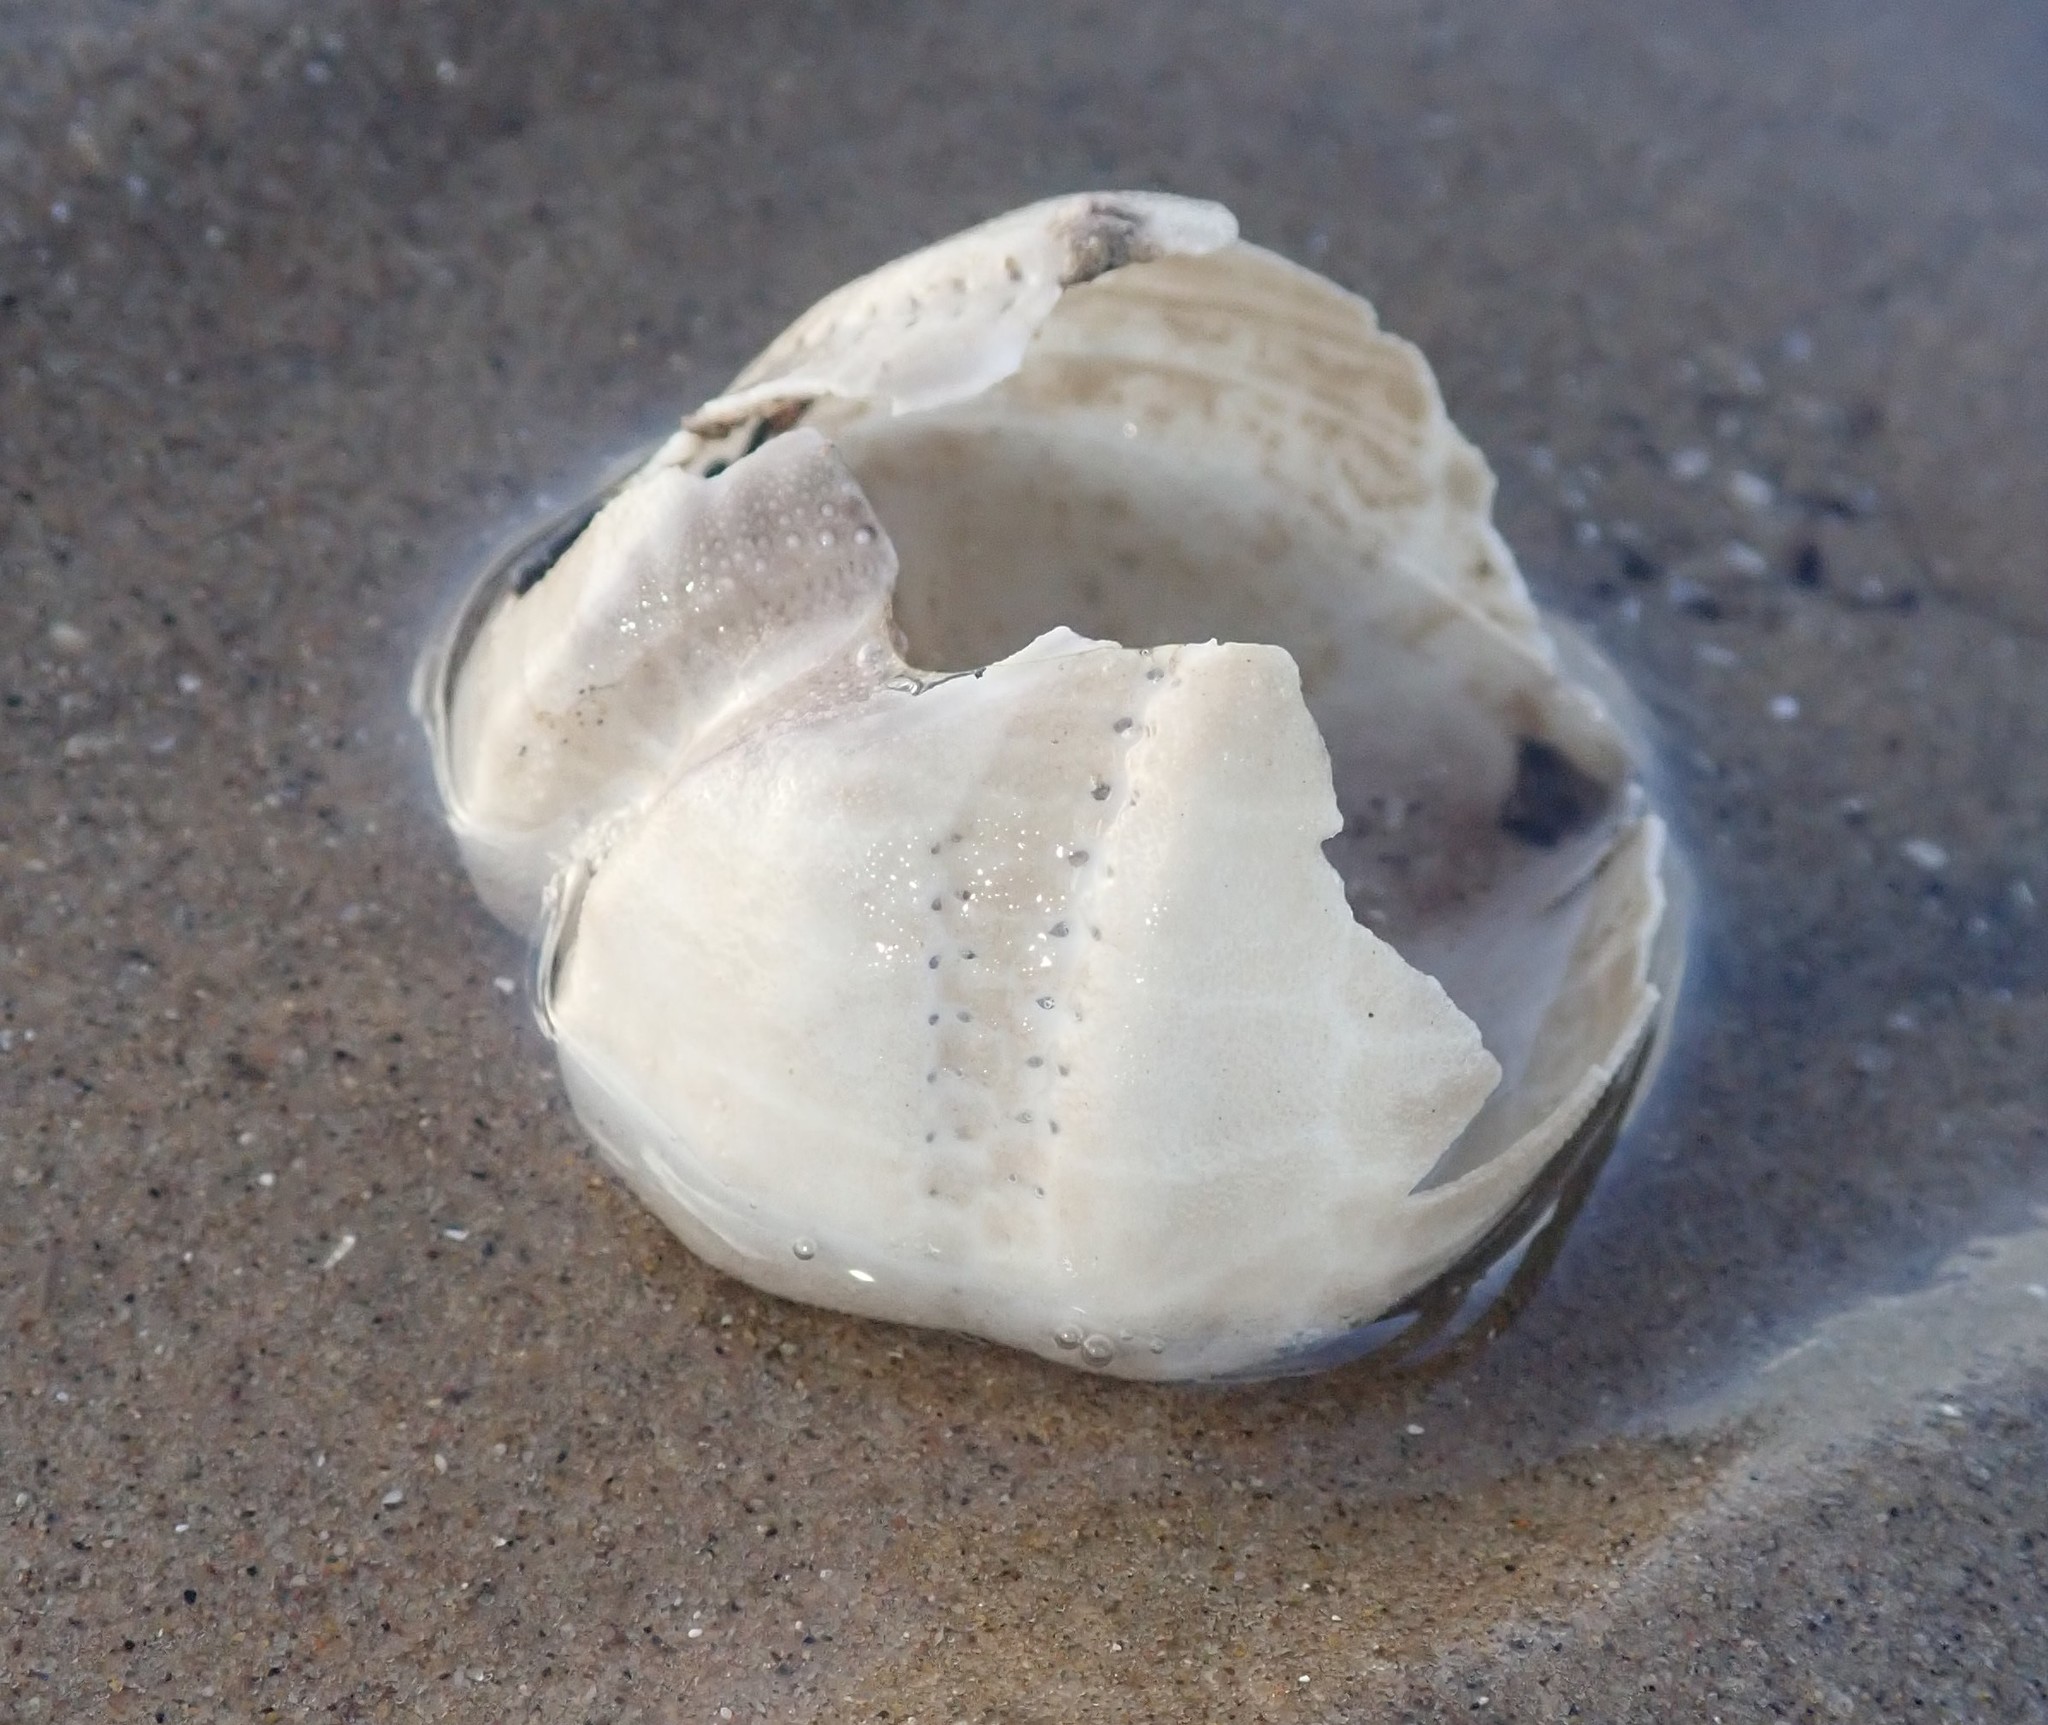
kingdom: Animalia
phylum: Echinodermata
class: Echinoidea
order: Spatangoida
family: Loveniidae
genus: Echinocardium
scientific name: Echinocardium cordatum
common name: Heart-urchin
